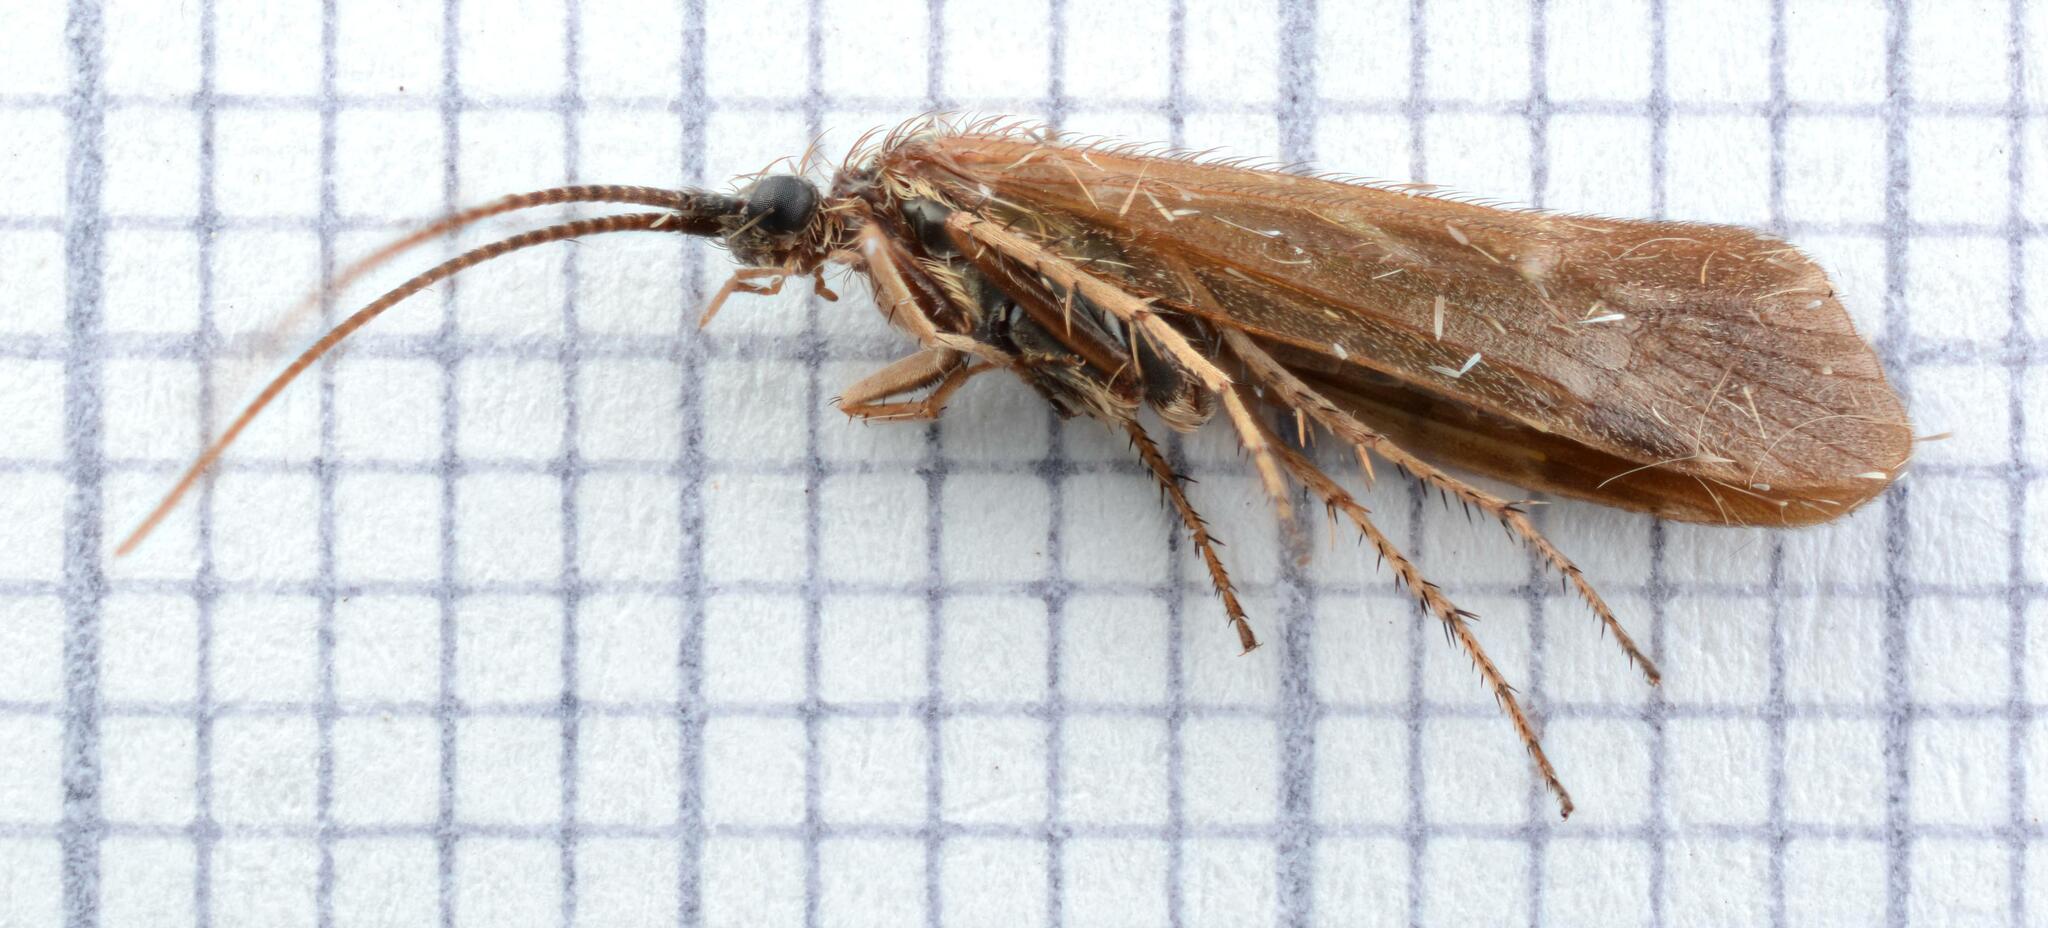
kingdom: Animalia
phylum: Arthropoda
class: Insecta
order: Trichoptera
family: Limnephilidae
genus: Limnephilus
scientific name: Limnephilus auricula
